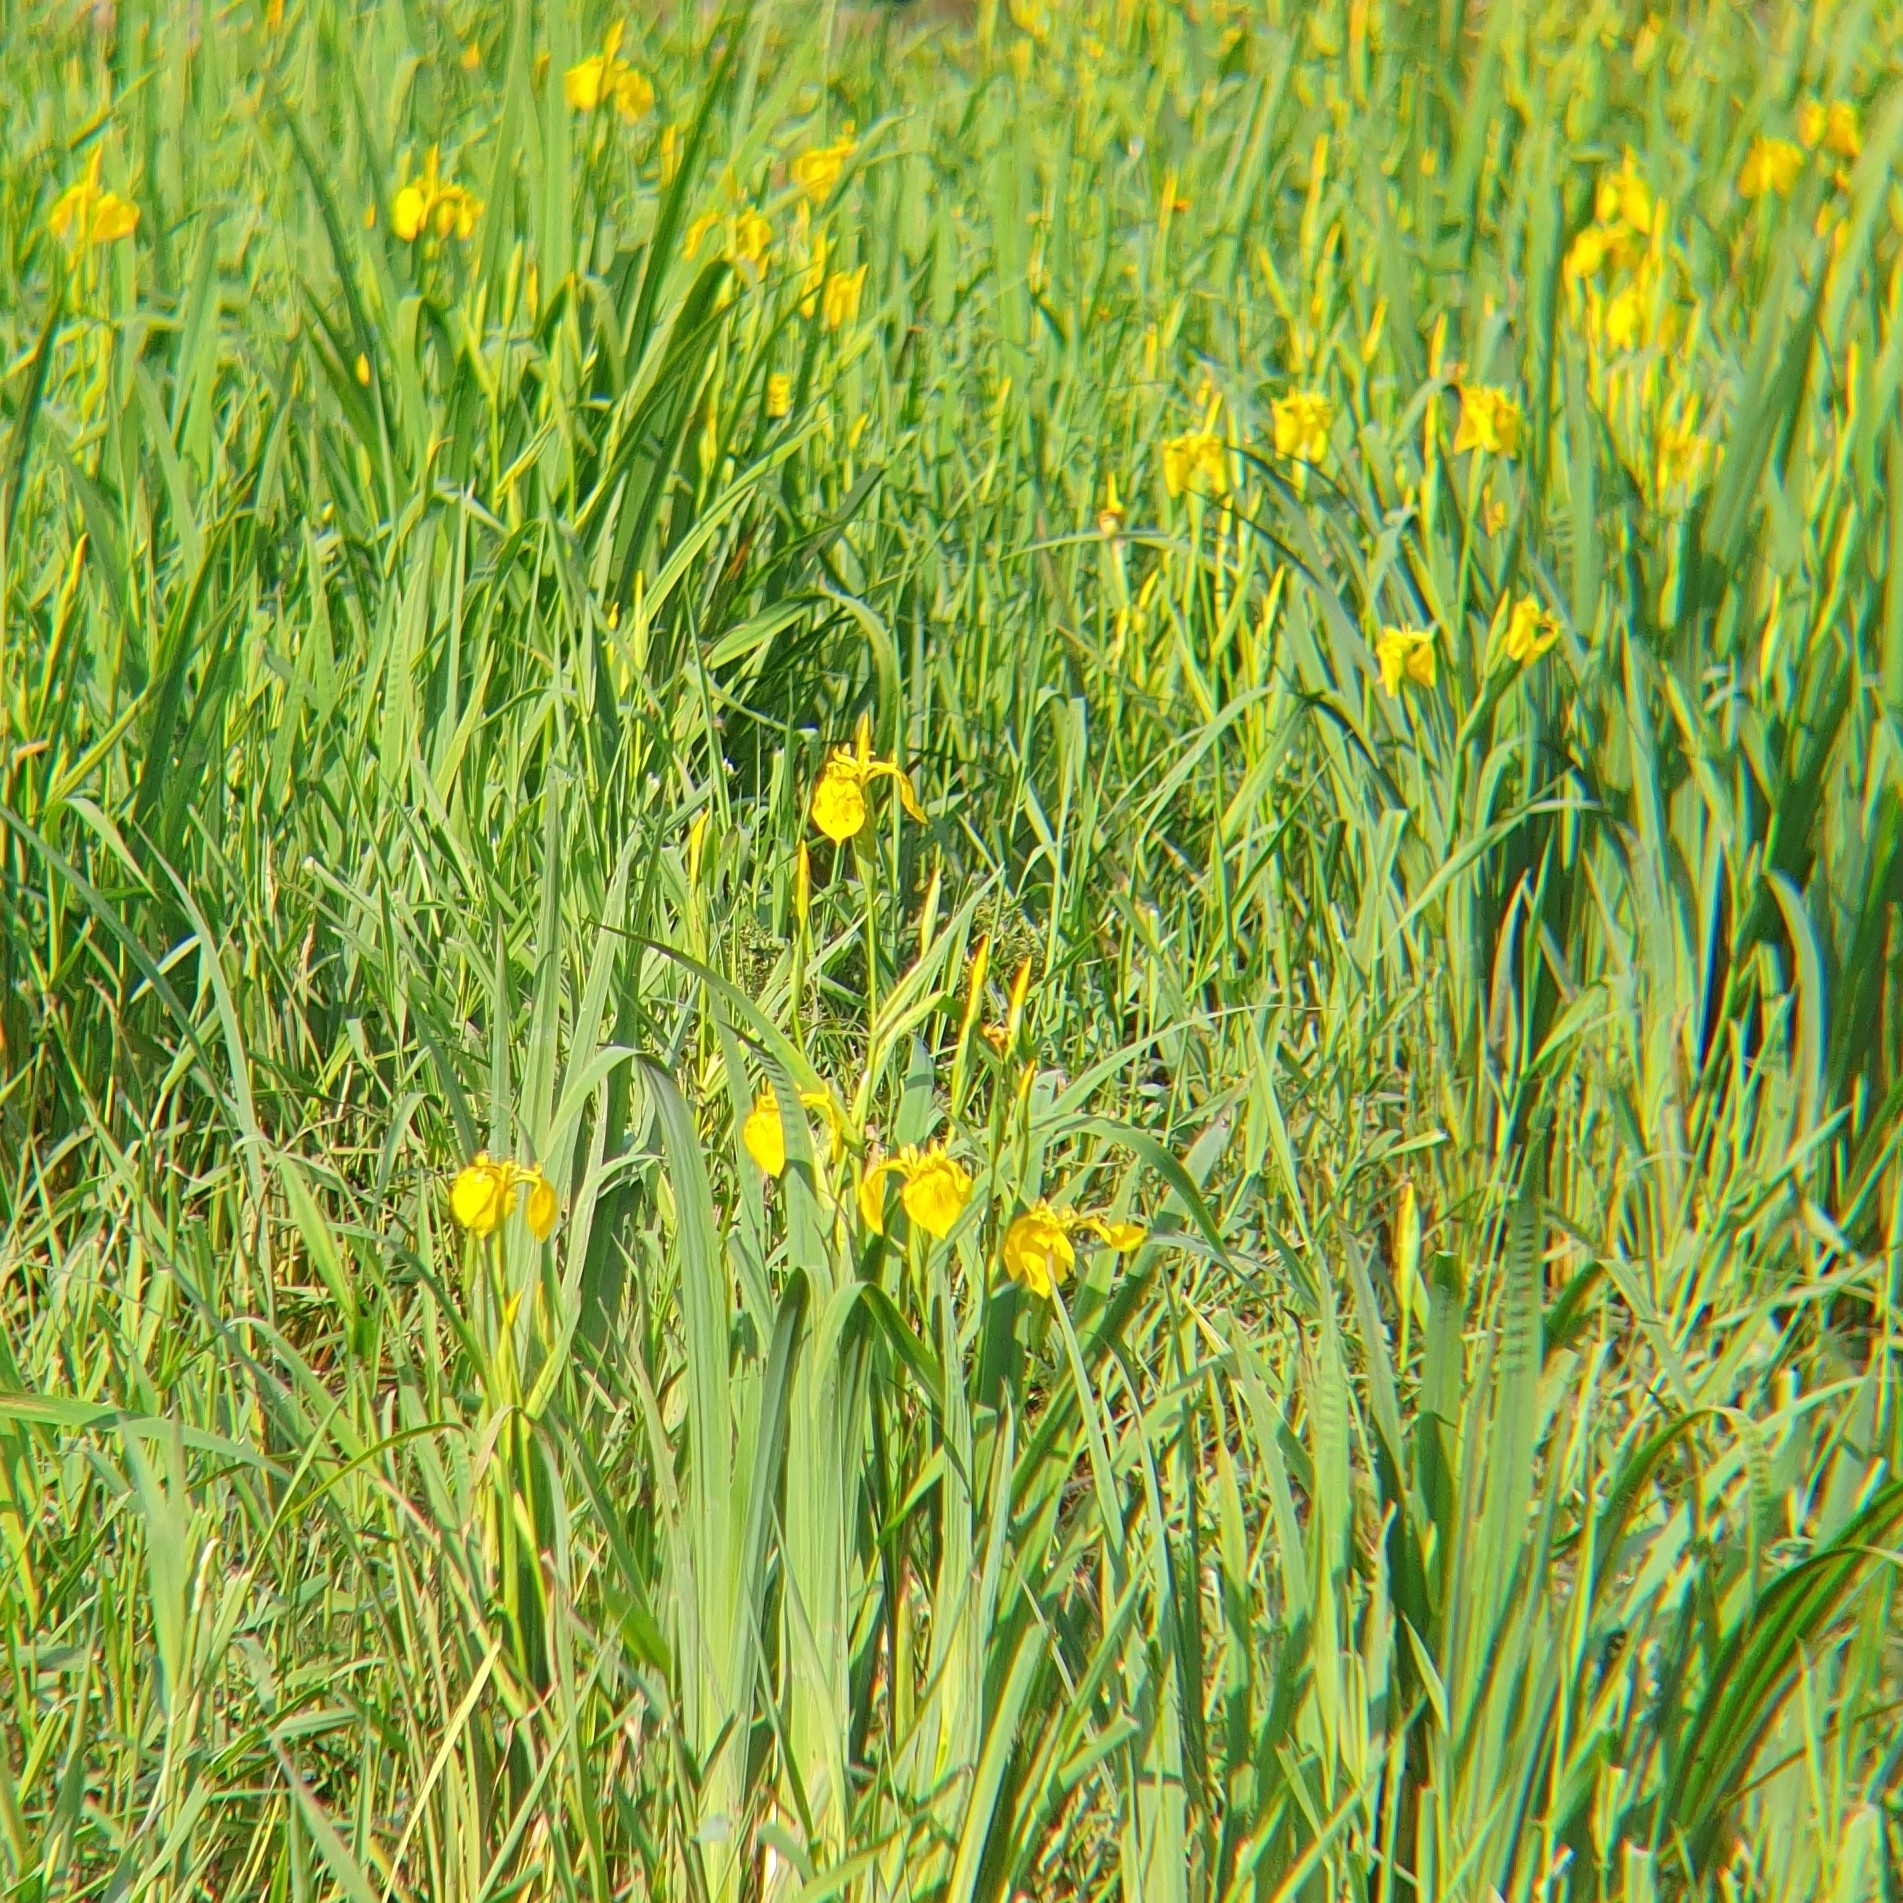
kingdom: Plantae
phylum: Tracheophyta
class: Liliopsida
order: Asparagales
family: Iridaceae
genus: Iris
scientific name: Iris pseudacorus
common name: Yellow flag
